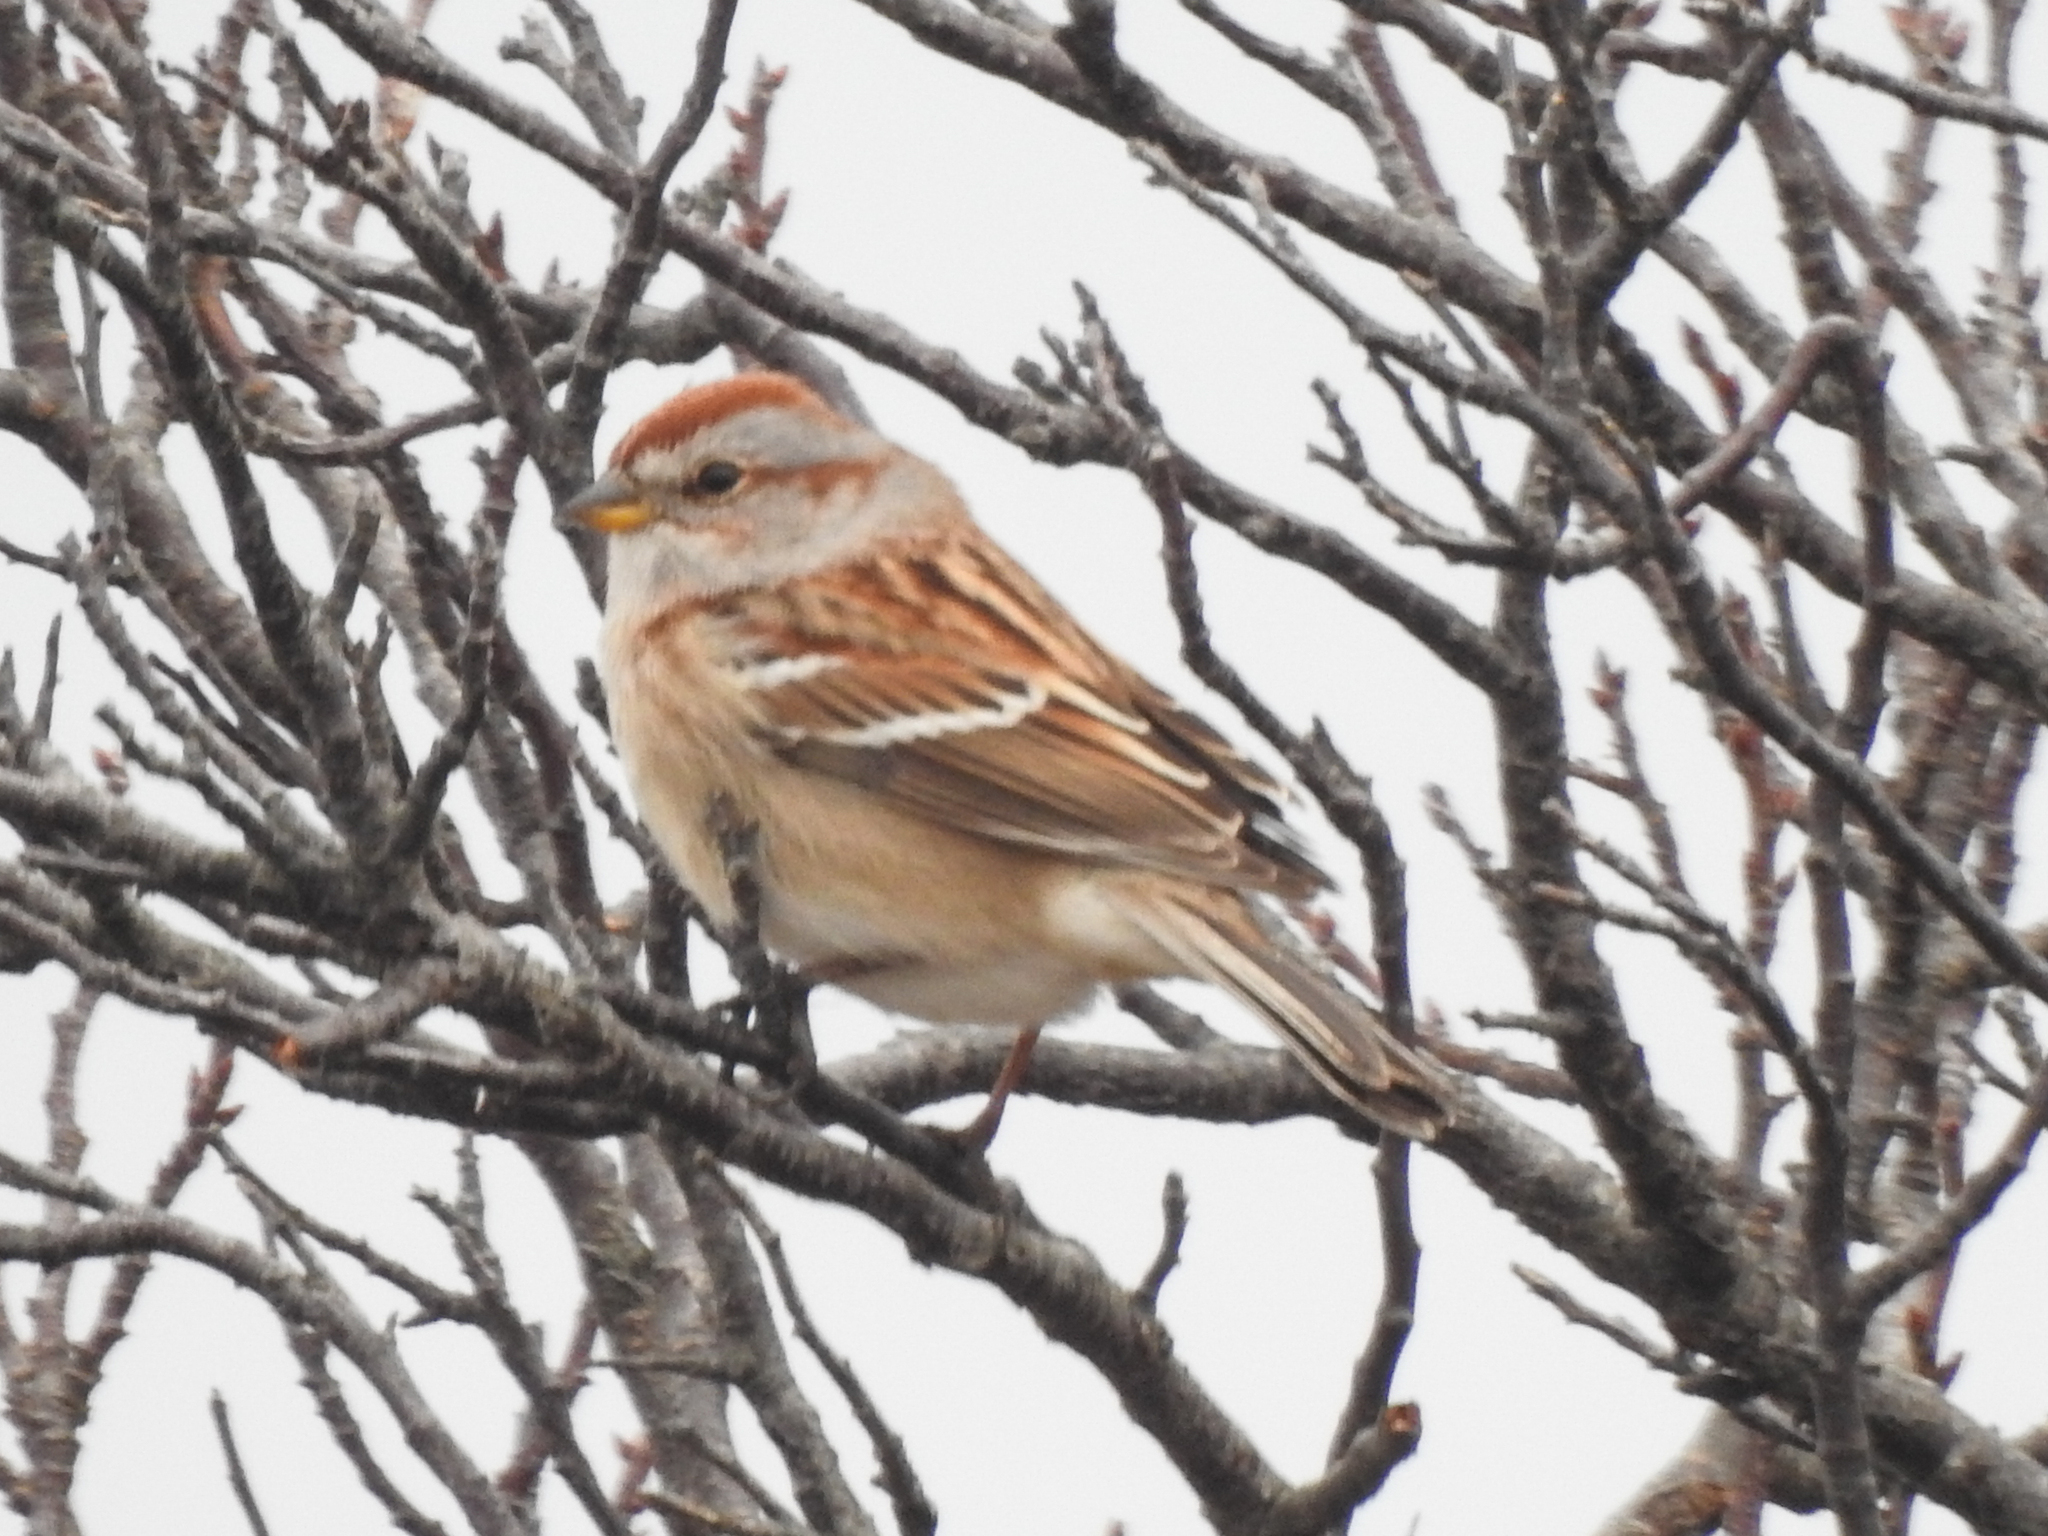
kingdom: Animalia
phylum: Chordata
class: Aves
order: Passeriformes
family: Passerellidae
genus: Spizelloides
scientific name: Spizelloides arborea
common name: American tree sparrow
